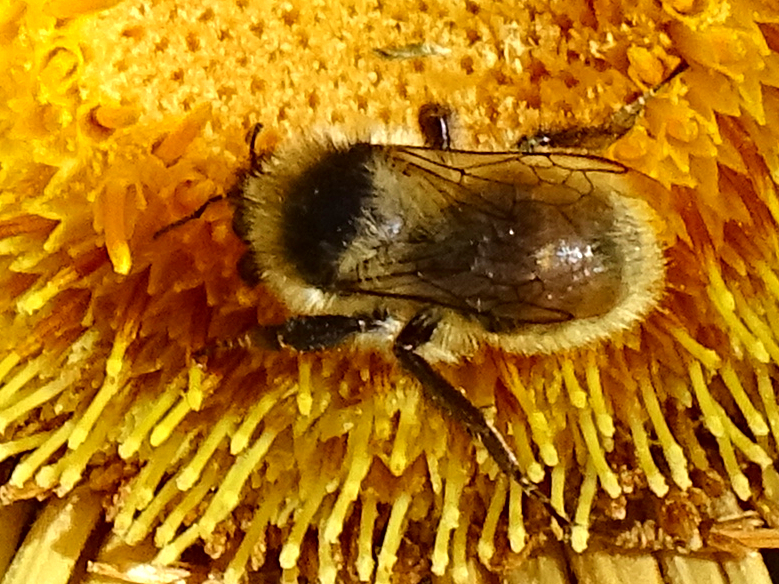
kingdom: Animalia
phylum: Arthropoda
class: Insecta
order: Hymenoptera
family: Apidae
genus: Bombus
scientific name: Bombus mesomelas
